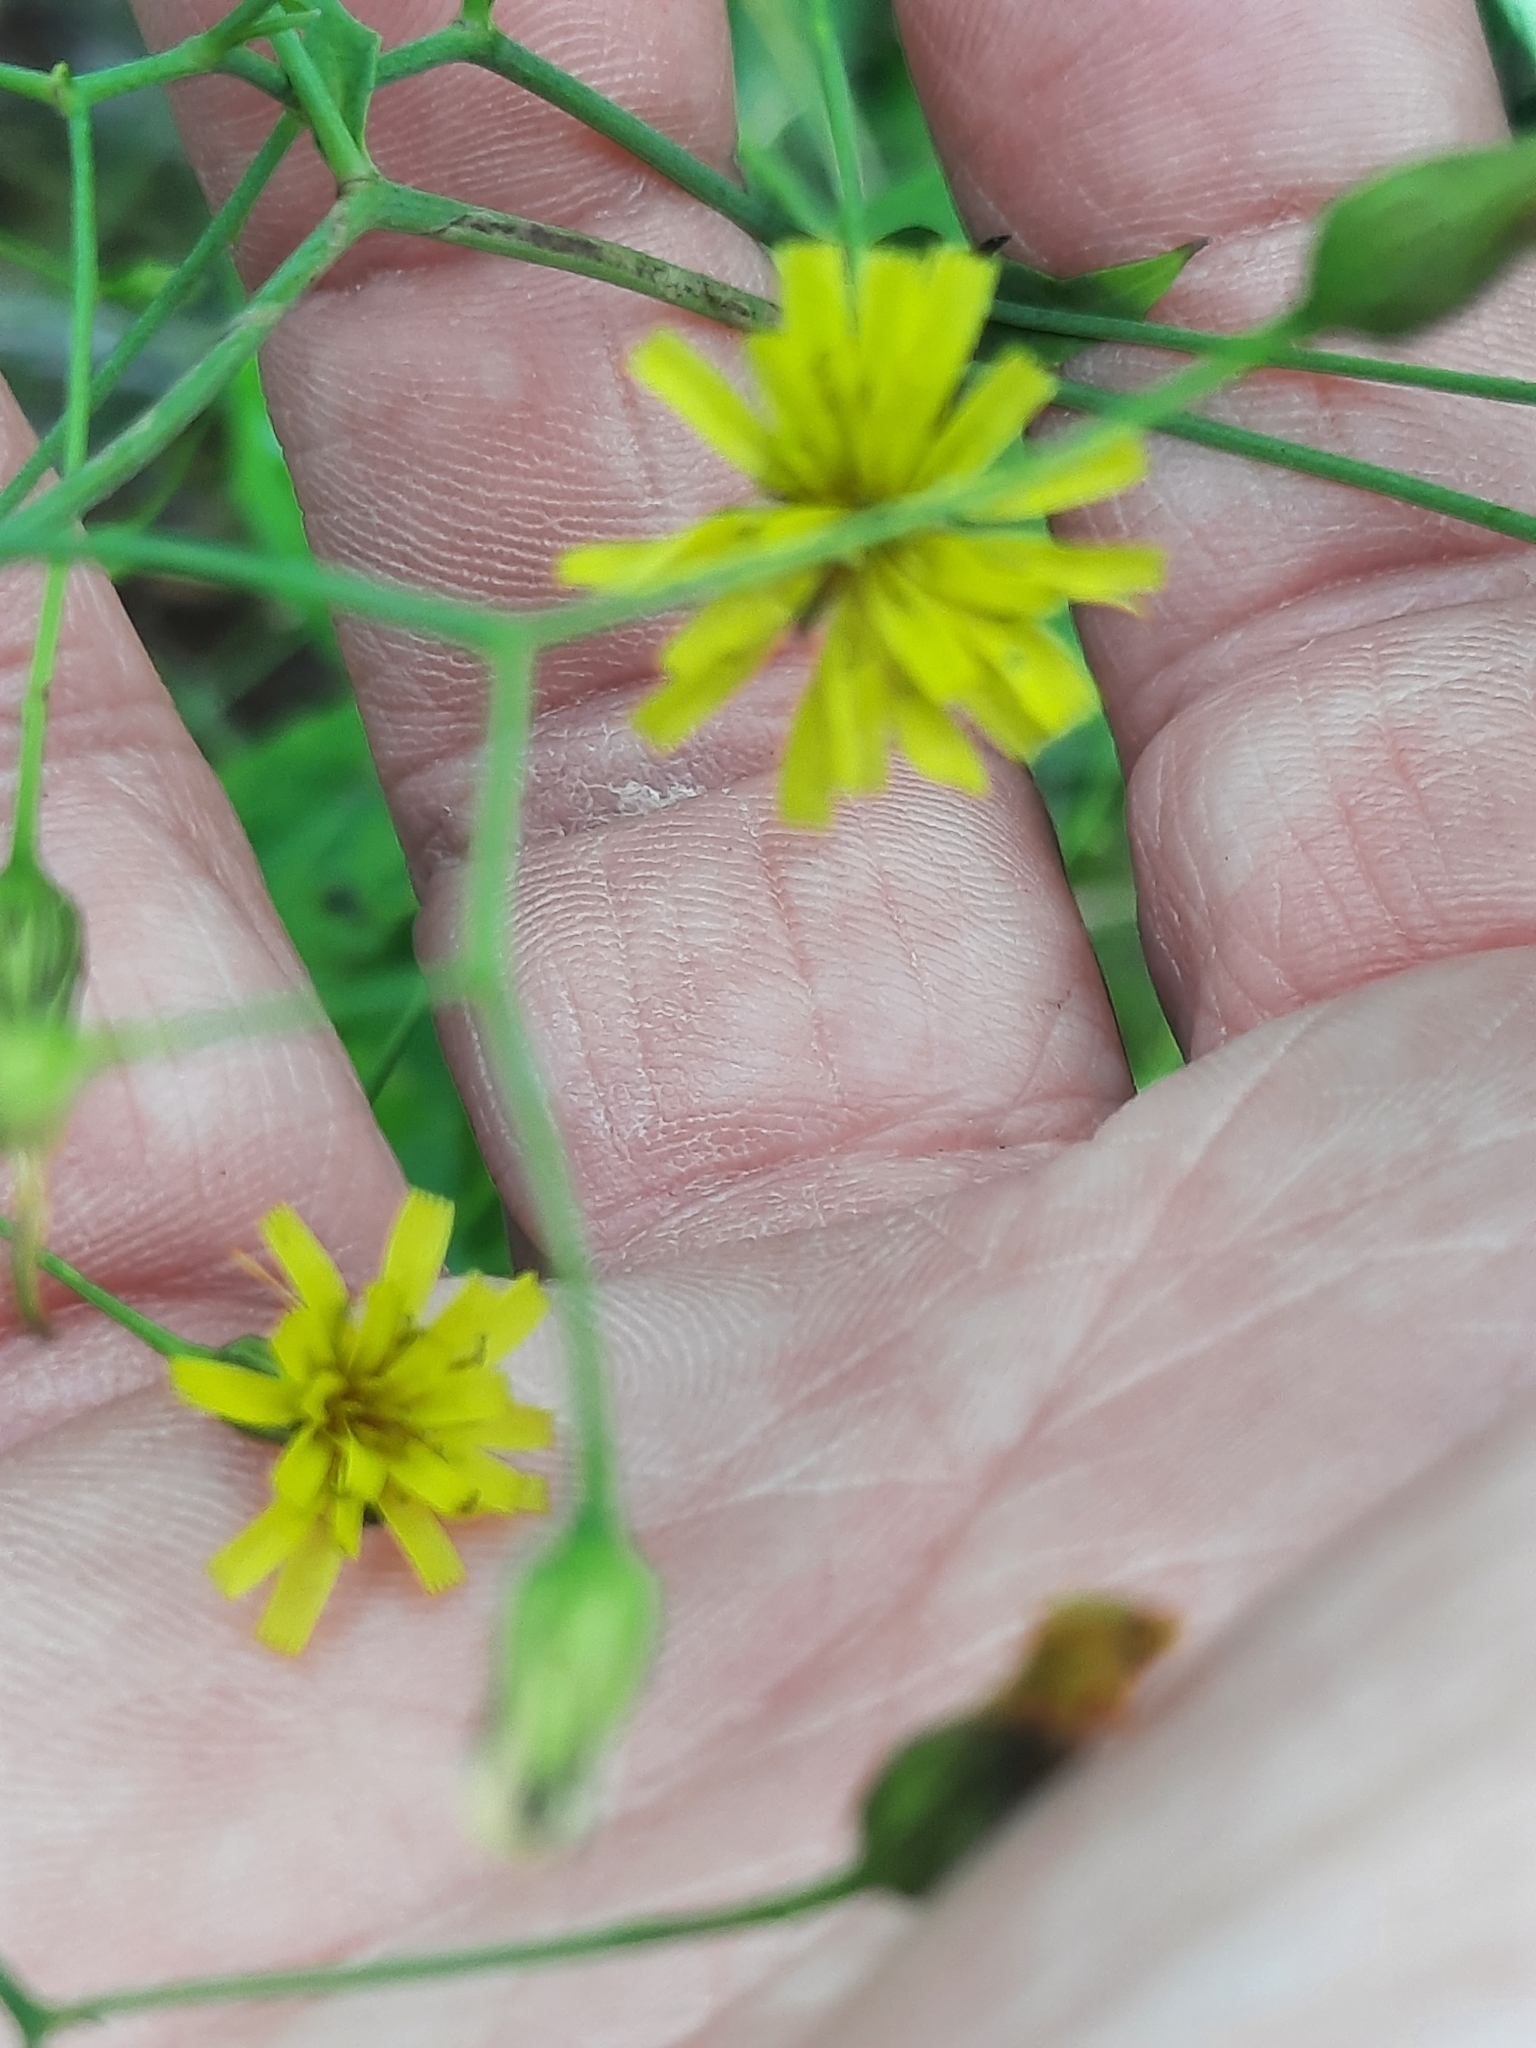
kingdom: Plantae
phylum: Tracheophyta
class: Magnoliopsida
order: Asterales
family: Asteraceae
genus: Hieracium
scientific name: Hieracium paniculatum
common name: Allegheny hawkweed
